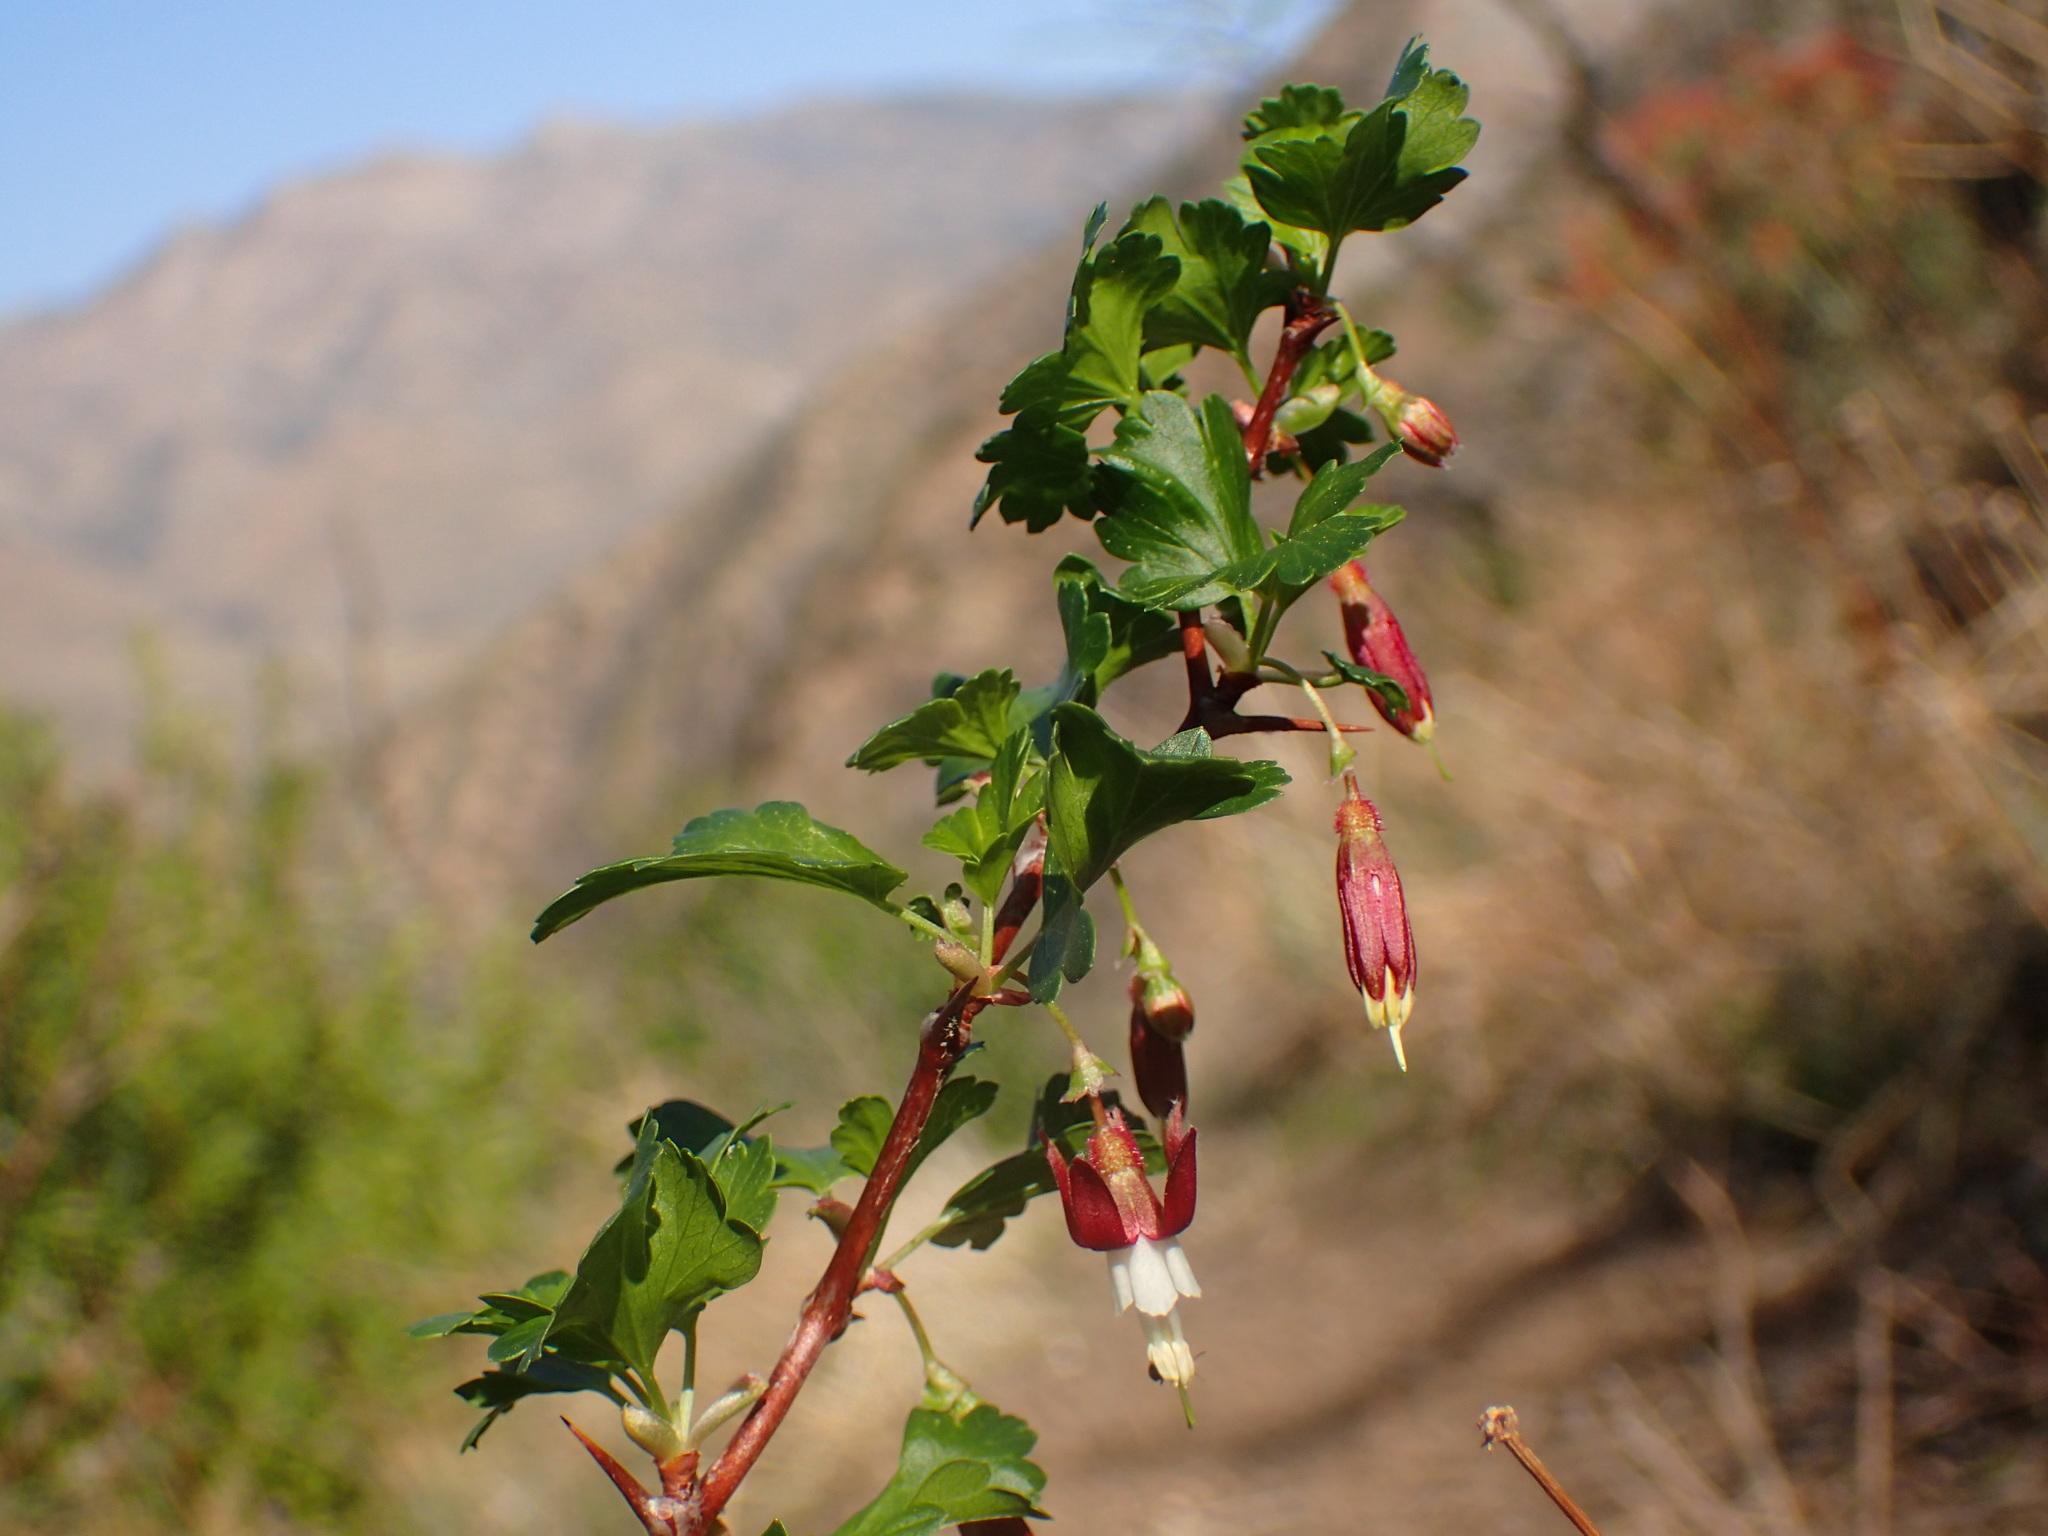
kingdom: Plantae
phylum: Tracheophyta
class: Magnoliopsida
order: Saxifragales
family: Grossulariaceae
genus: Ribes
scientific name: Ribes californicum
